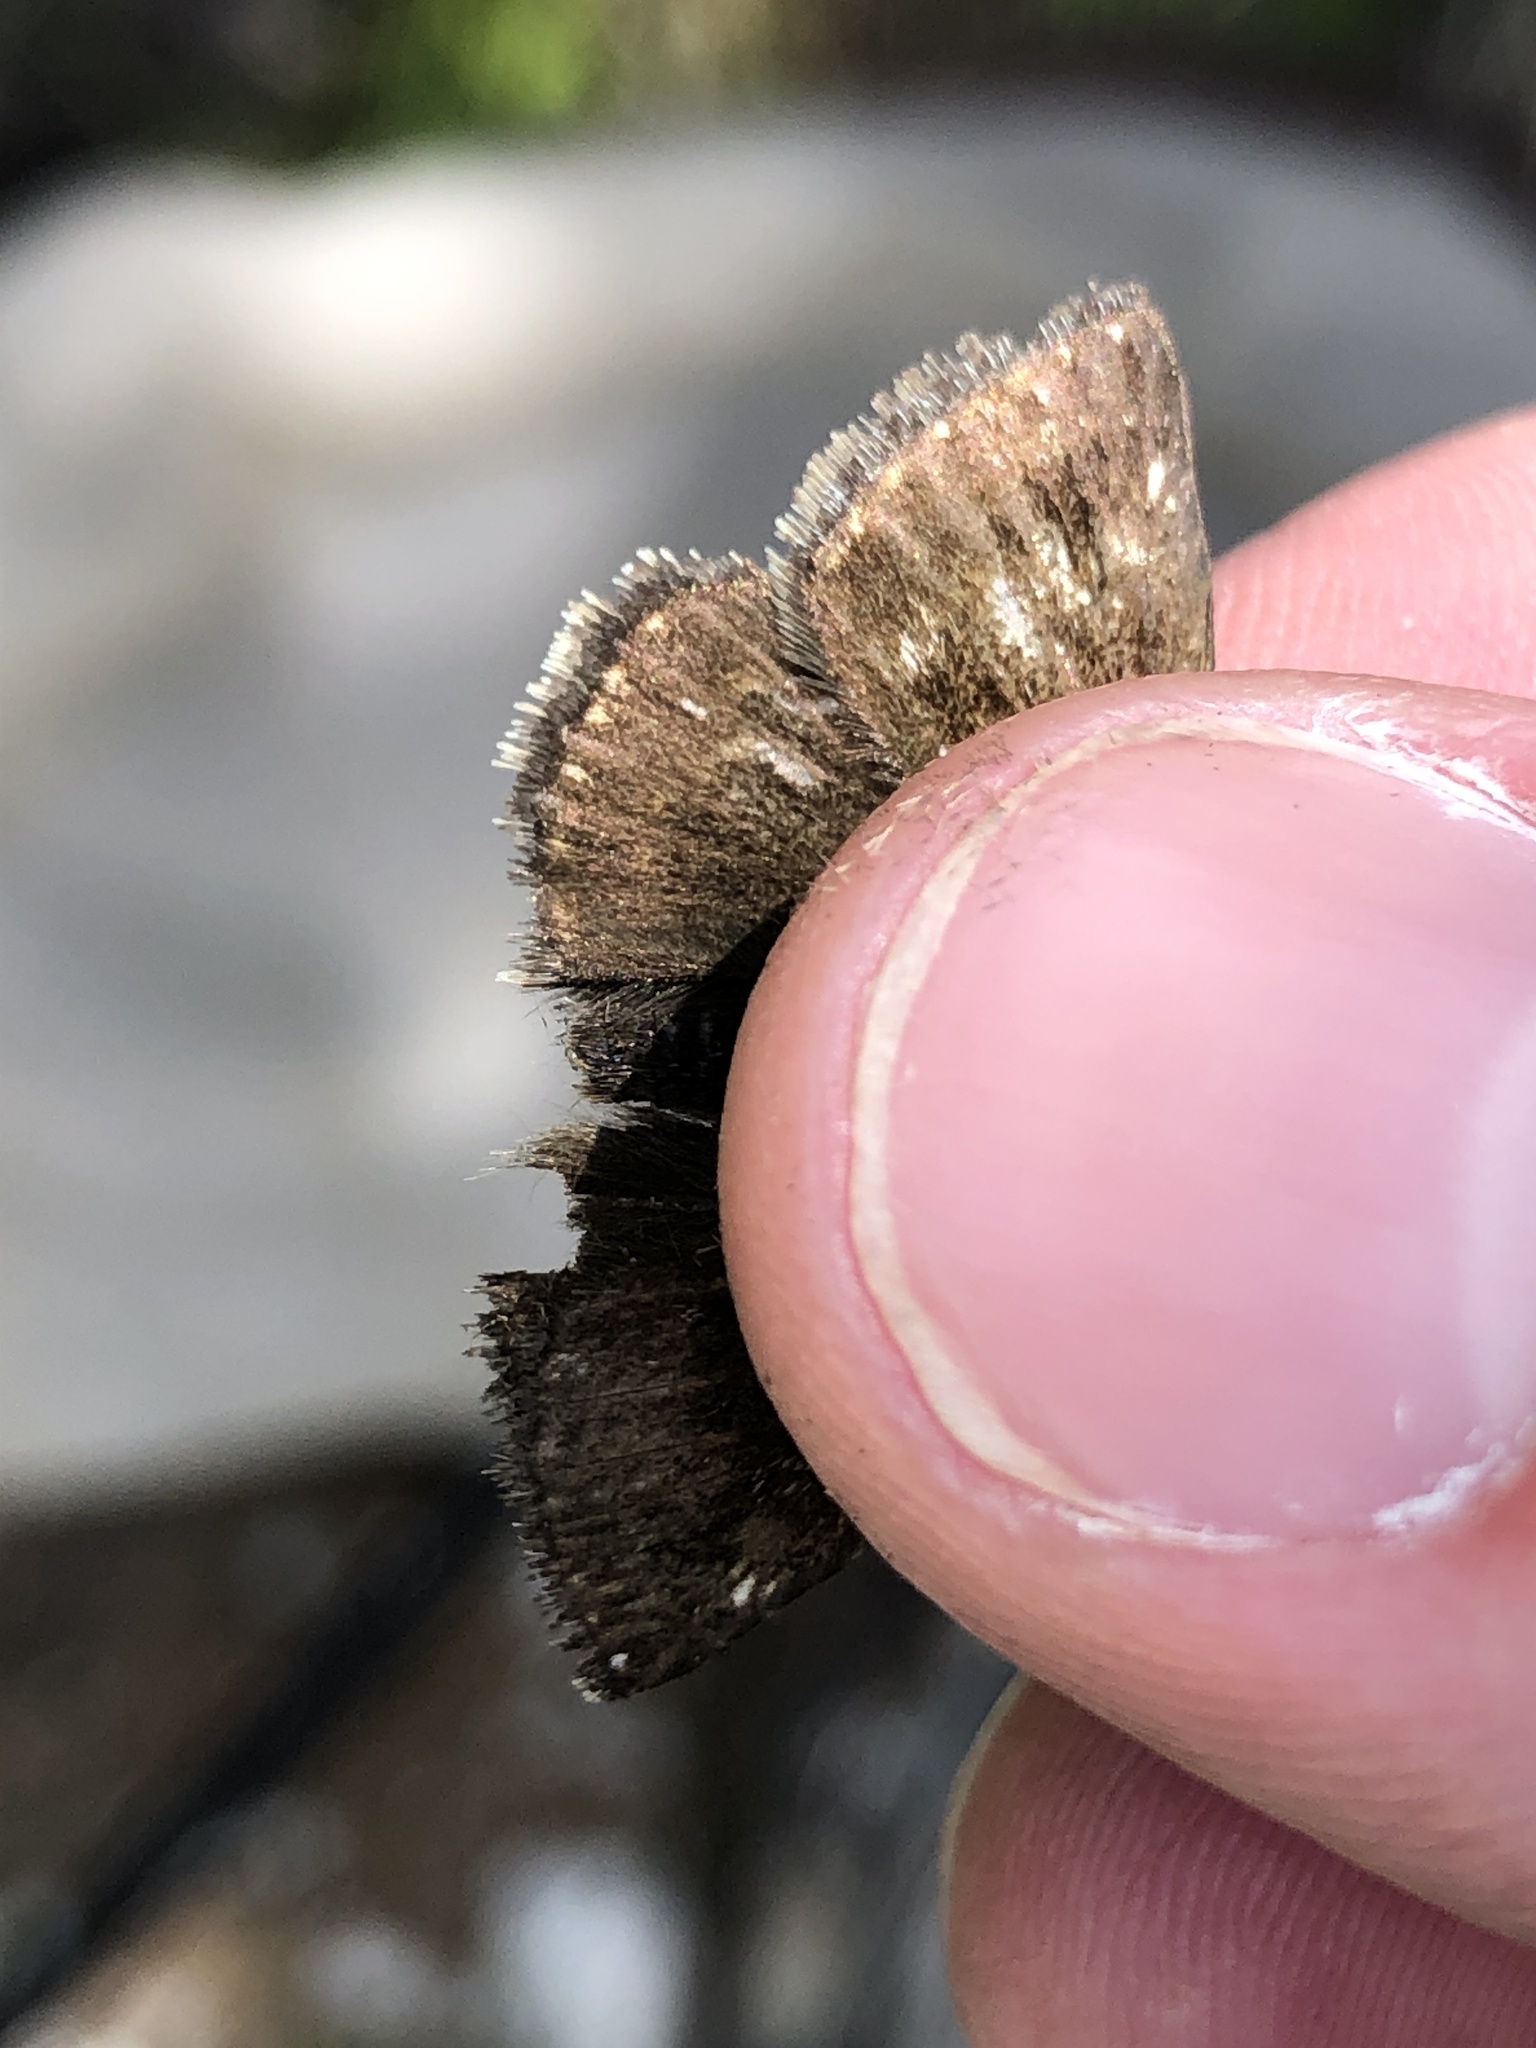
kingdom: Animalia
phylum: Arthropoda
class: Insecta
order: Lepidoptera
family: Hesperiidae
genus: Erynnis
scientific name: Erynnis tages
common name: Dingy skipper
